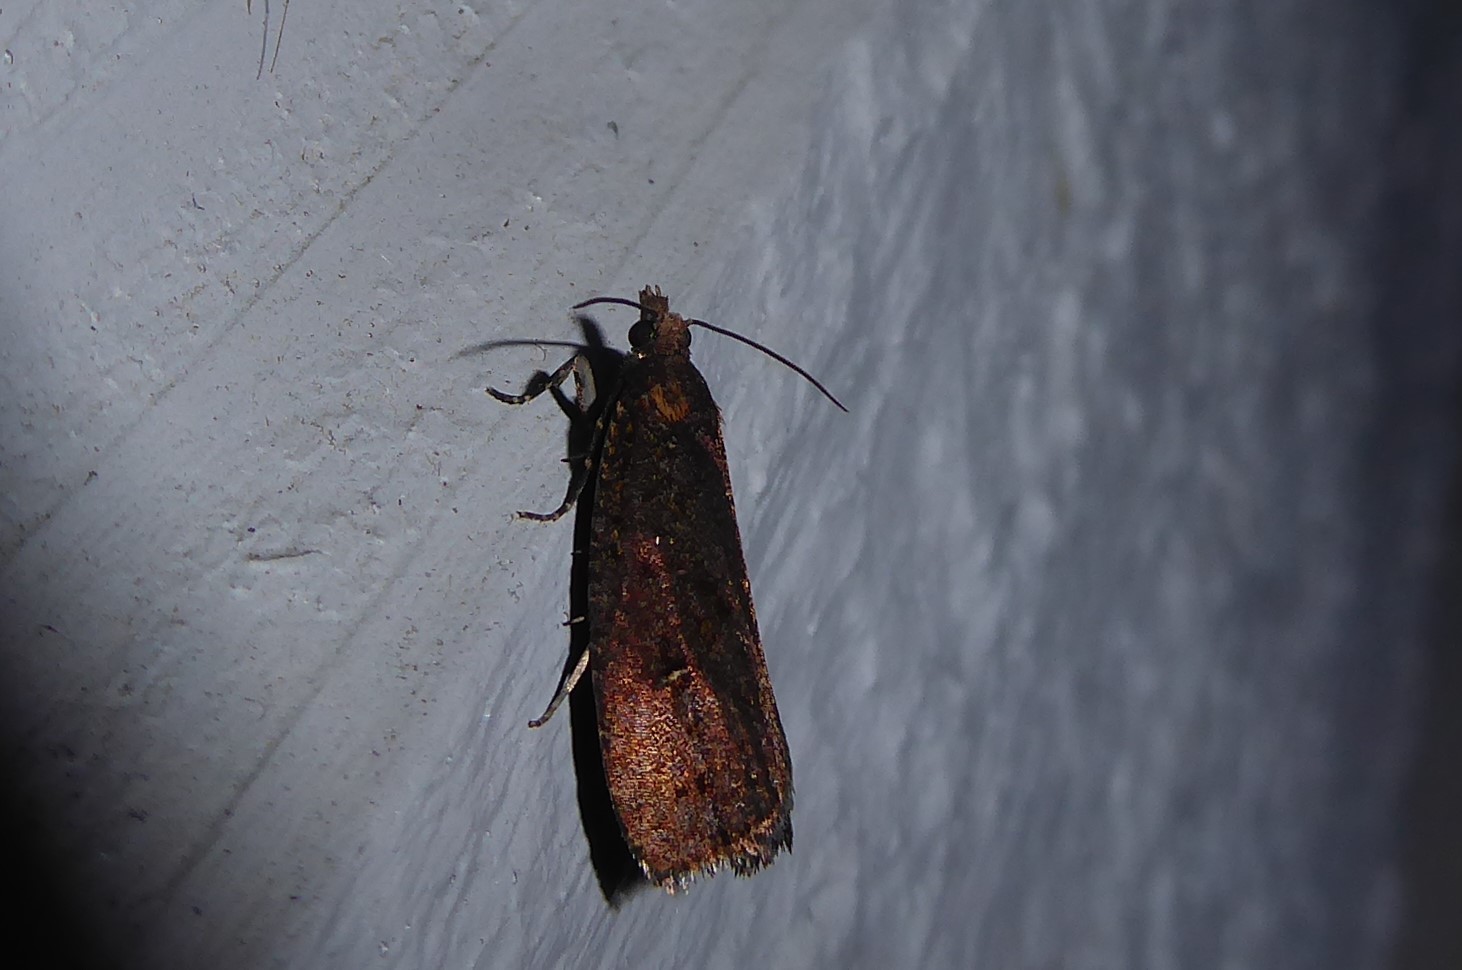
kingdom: Animalia
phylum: Arthropoda
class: Insecta
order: Lepidoptera
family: Tortricidae
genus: Cryptaspasma
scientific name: Cryptaspasma querula
